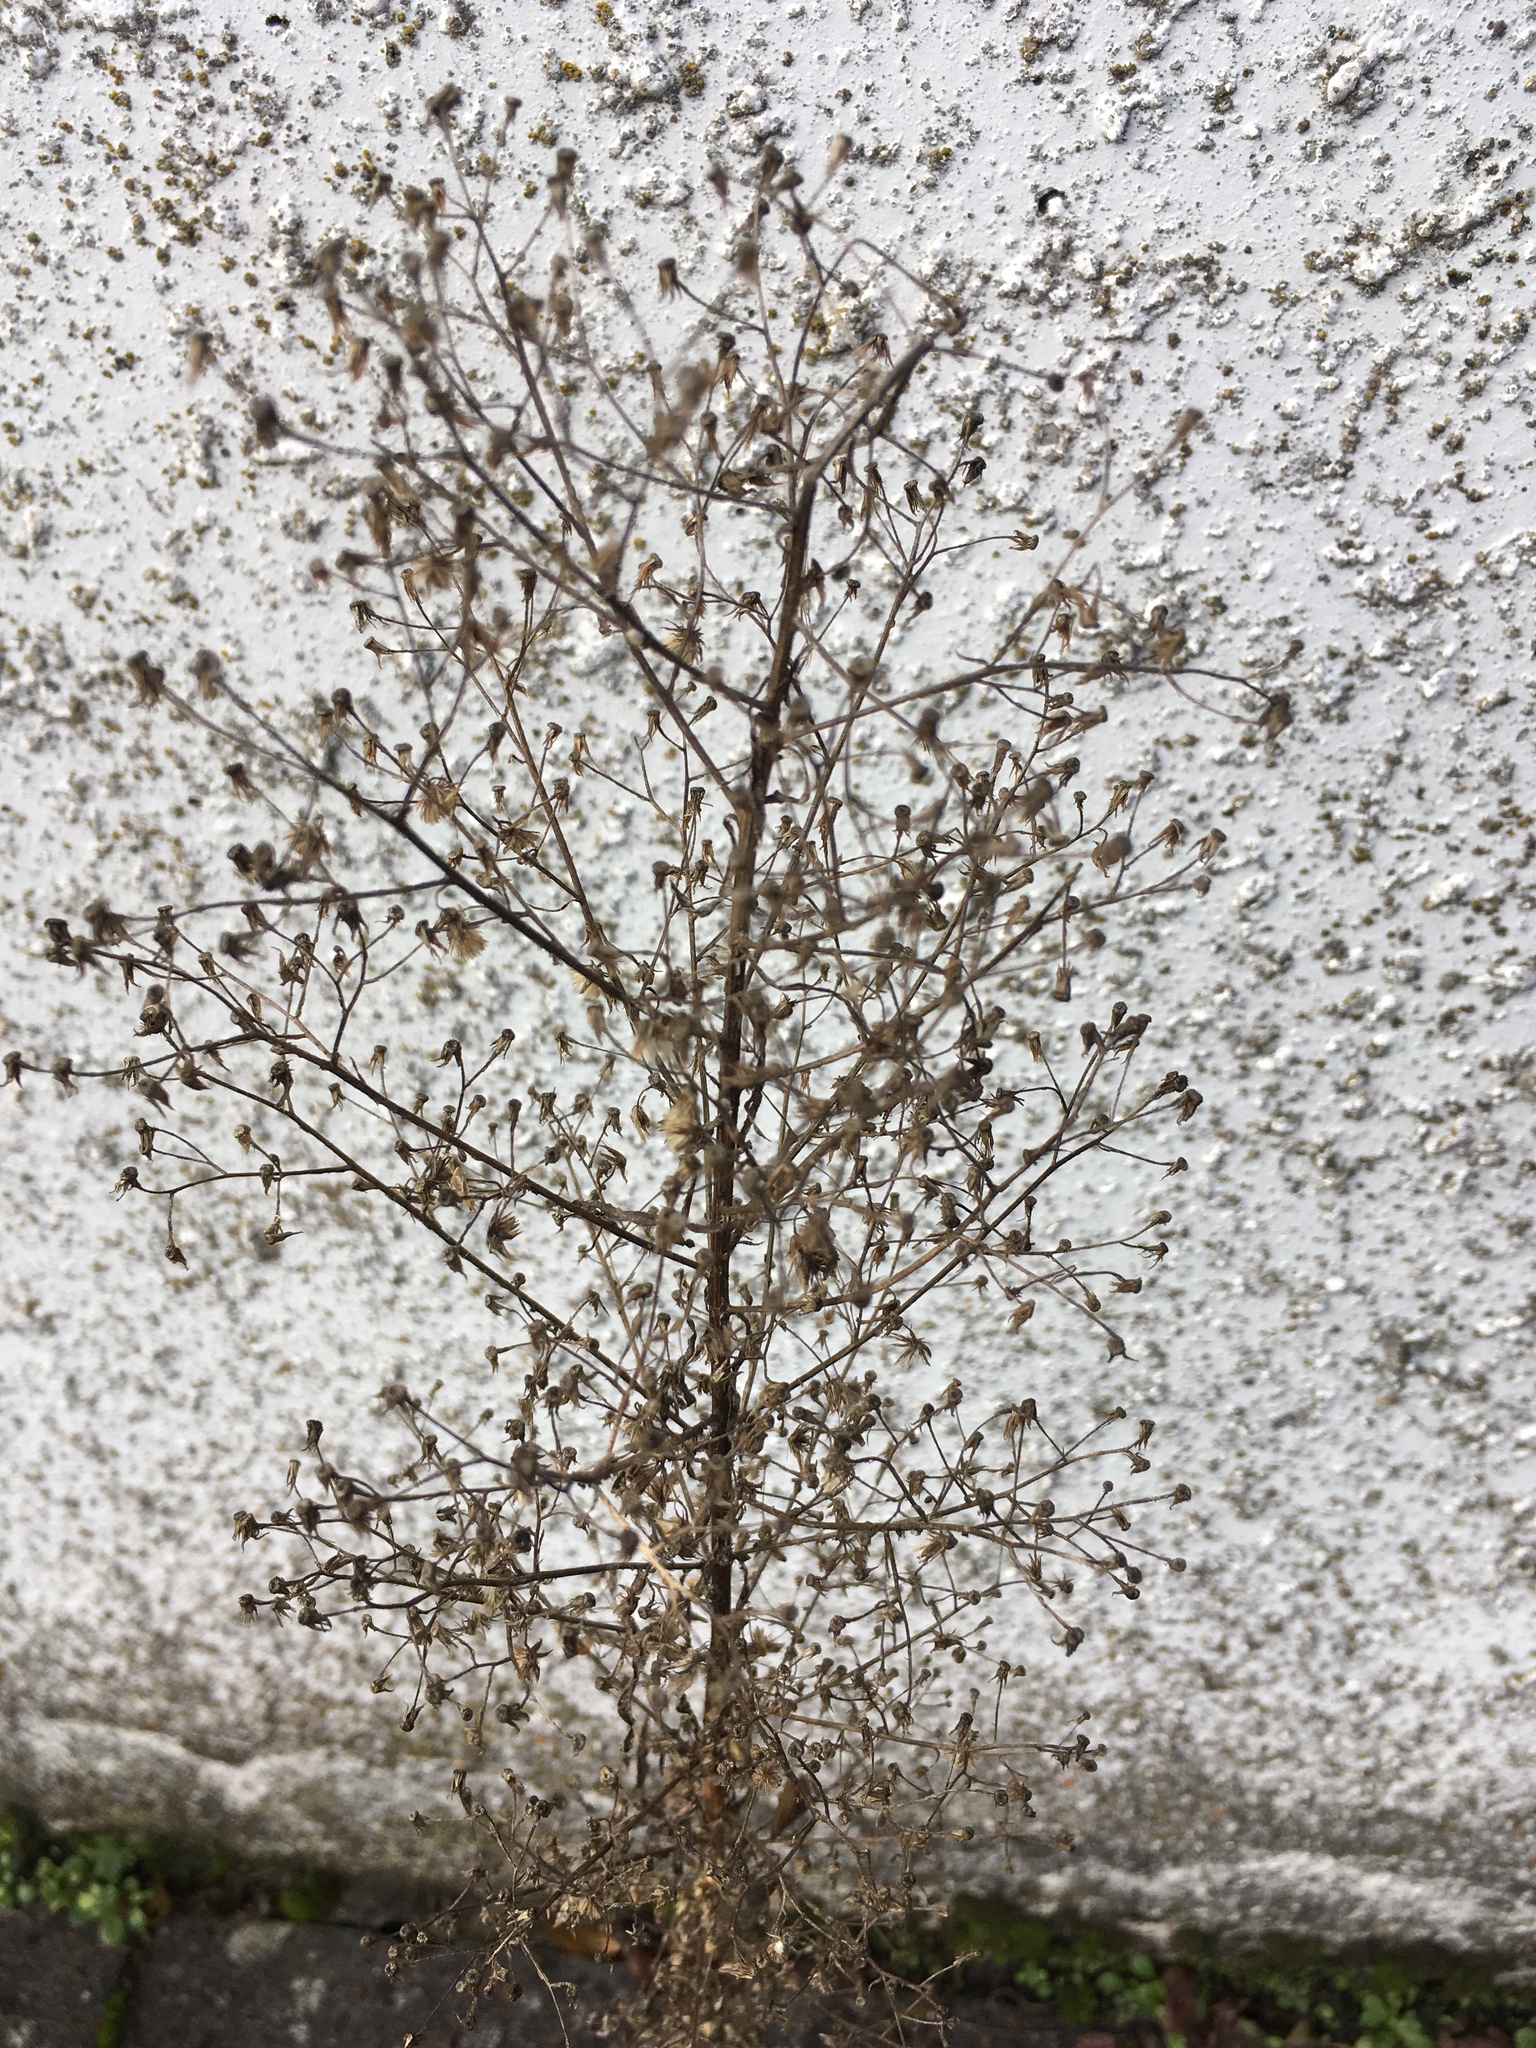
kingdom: Plantae
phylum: Tracheophyta
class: Magnoliopsida
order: Asterales
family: Asteraceae
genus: Erigeron
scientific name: Erigeron canadensis
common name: Canadian fleabane
